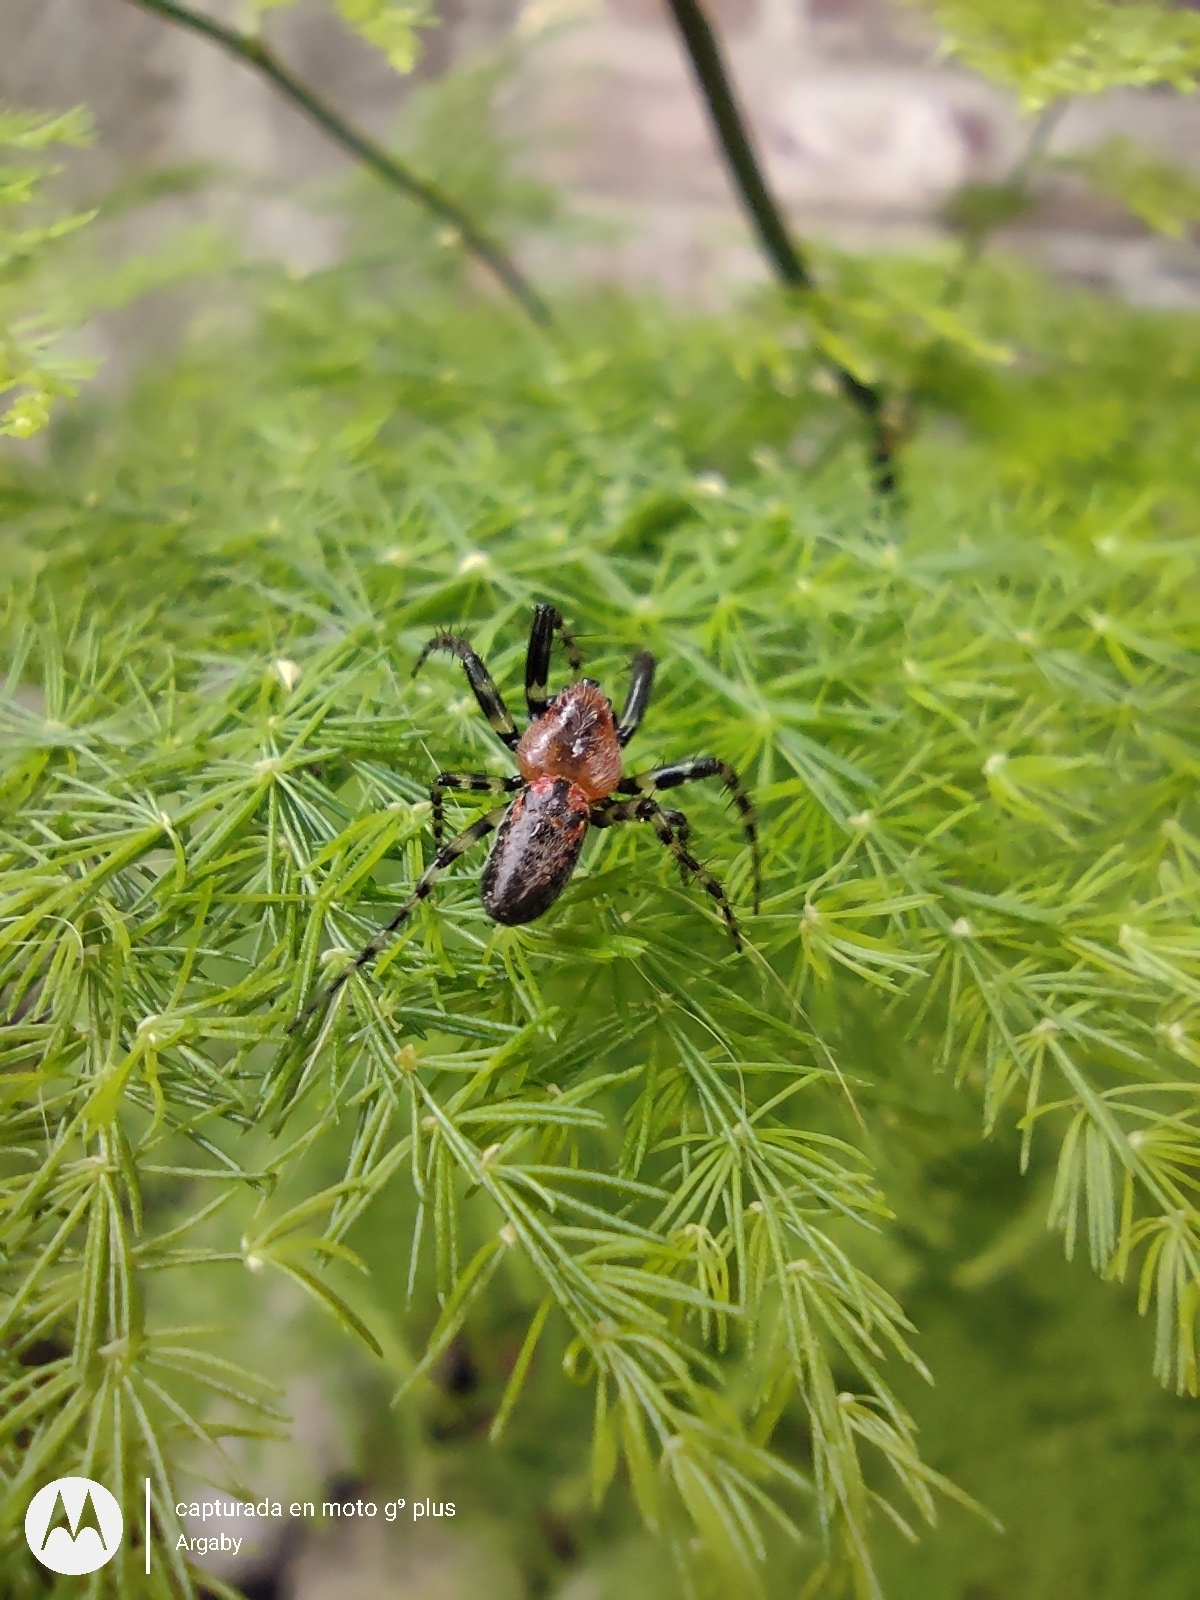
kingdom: Animalia
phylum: Arthropoda
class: Arachnida
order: Araneae
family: Araneidae
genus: Alpaida
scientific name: Alpaida gallardoi
